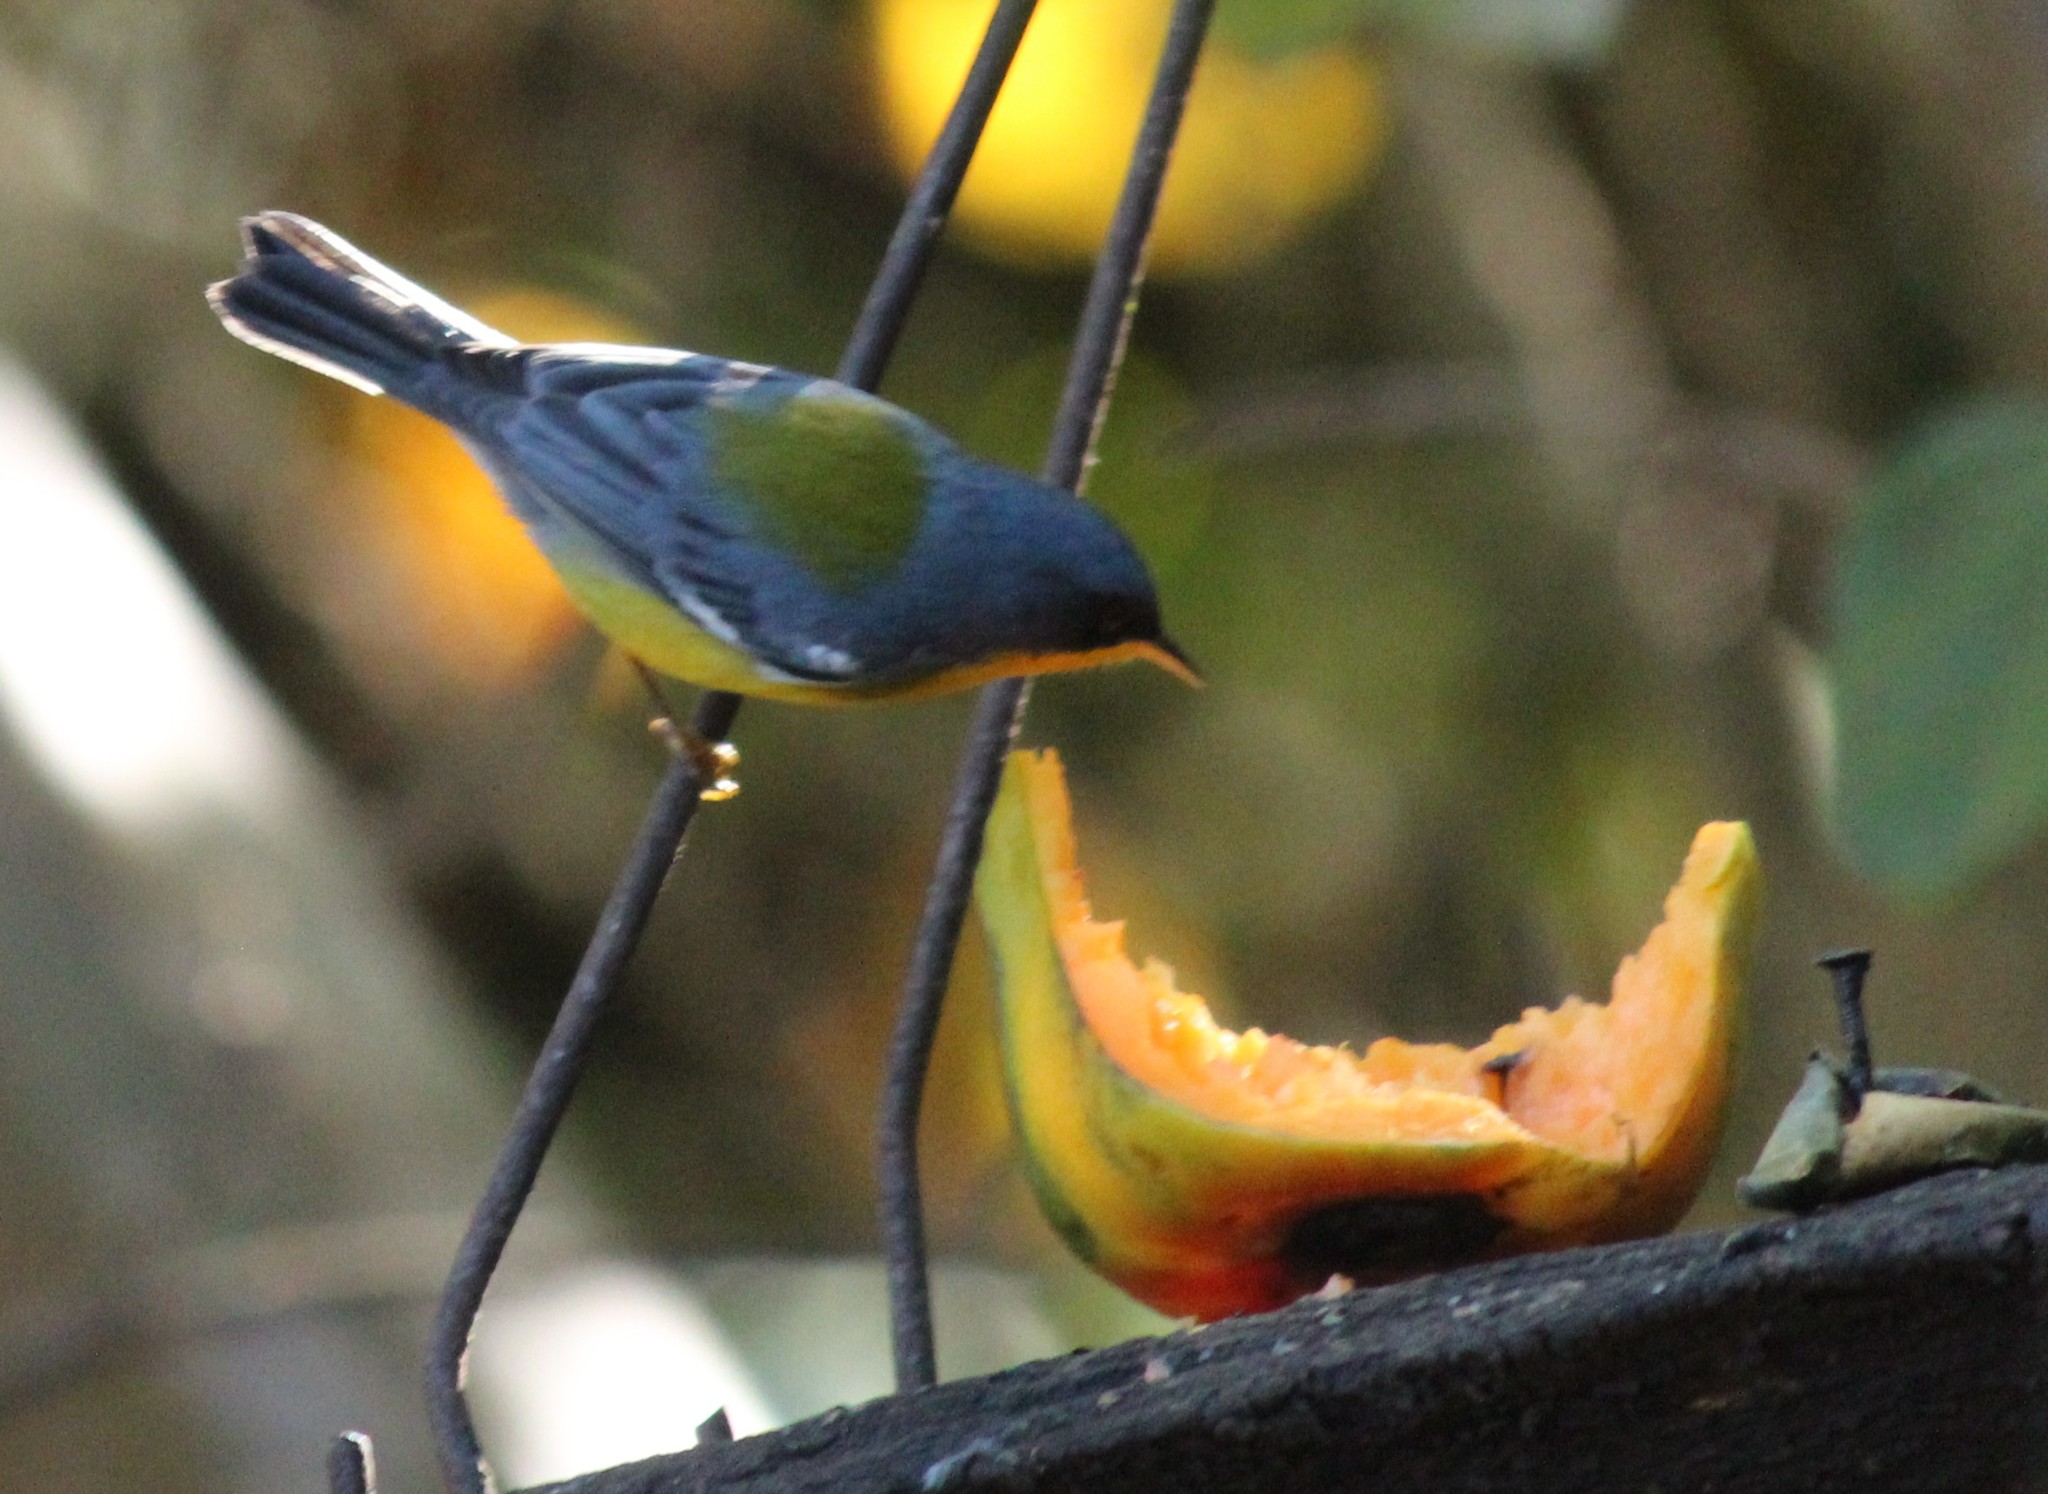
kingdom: Animalia
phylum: Chordata
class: Aves
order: Passeriformes
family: Parulidae
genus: Setophaga
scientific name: Setophaga pitiayumi
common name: Tropical parula
